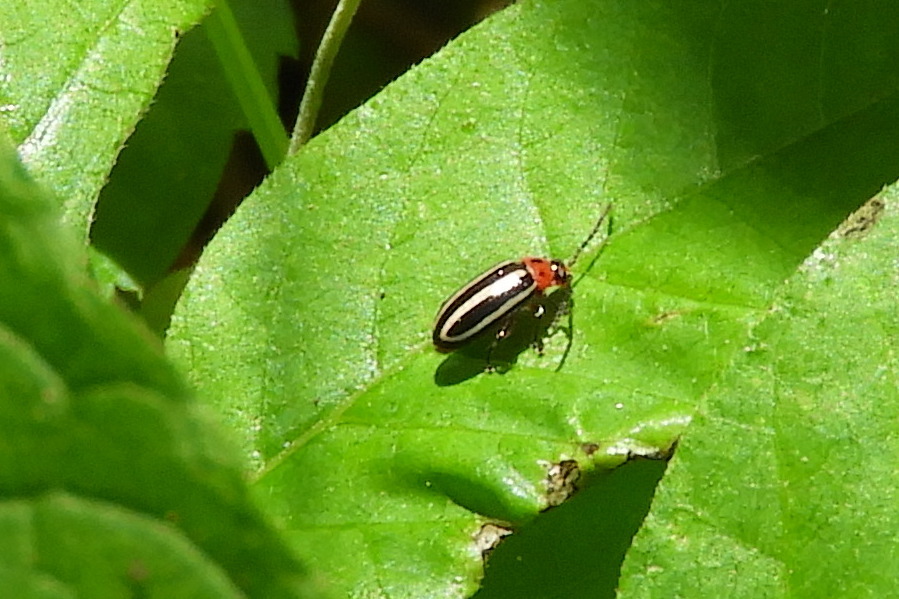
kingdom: Animalia
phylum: Arthropoda
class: Insecta
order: Coleoptera
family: Chrysomelidae
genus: Disonycha
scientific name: Disonycha glabrata
